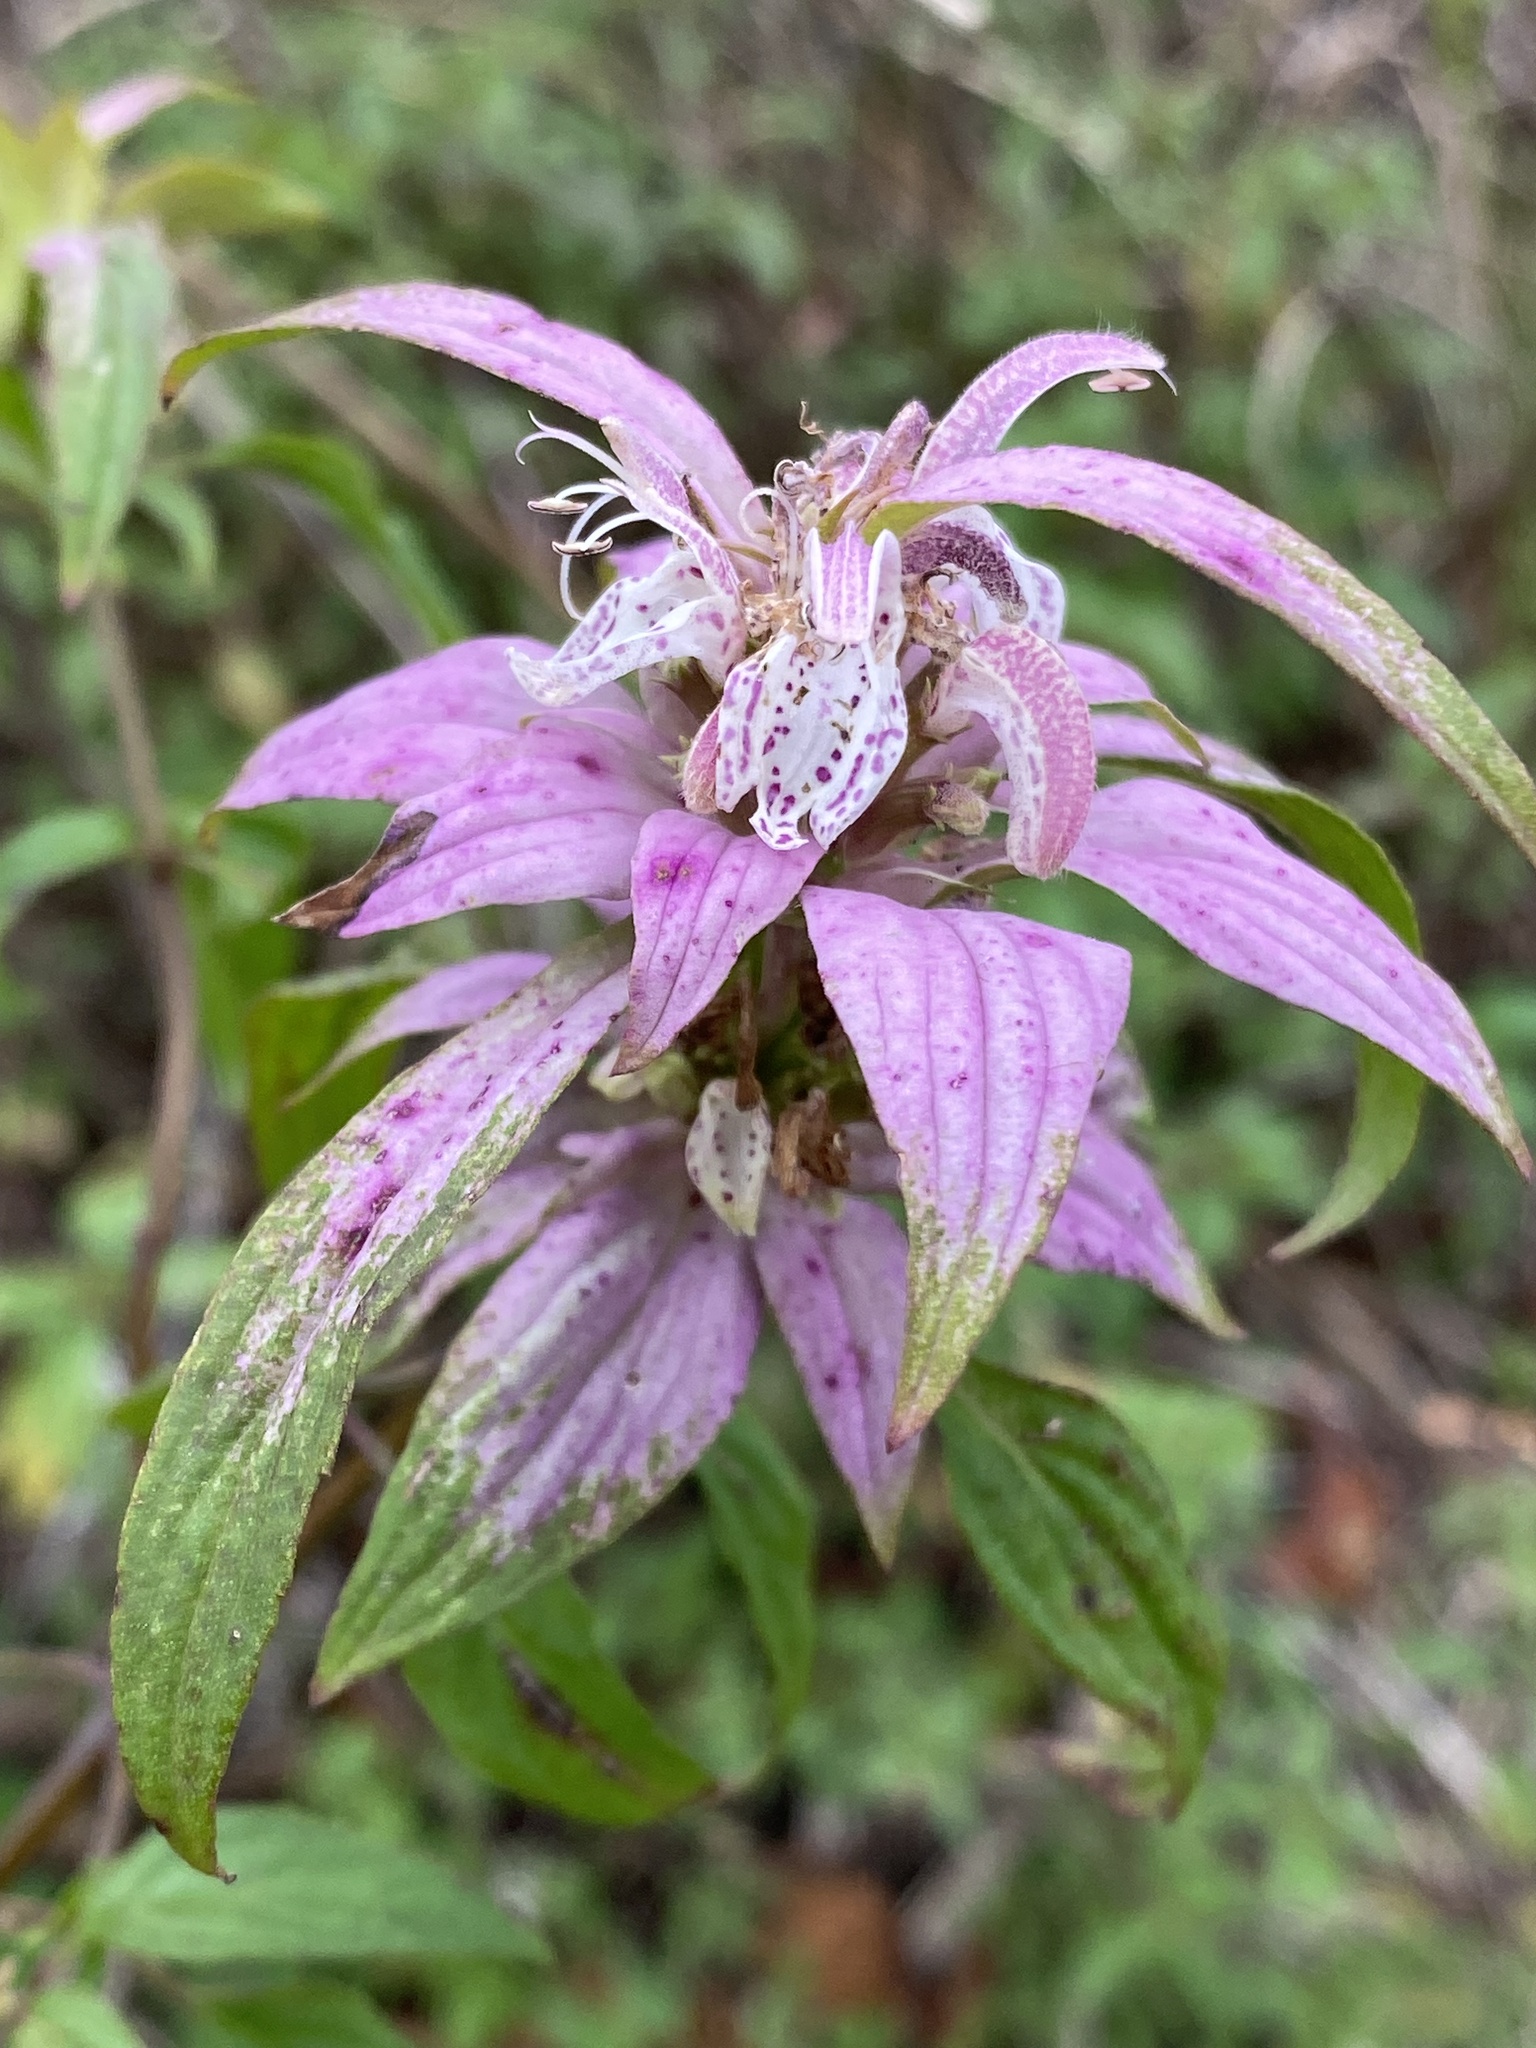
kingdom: Plantae
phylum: Tracheophyta
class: Magnoliopsida
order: Lamiales
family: Lamiaceae
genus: Monarda
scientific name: Monarda punctata
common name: Dotted monarda
